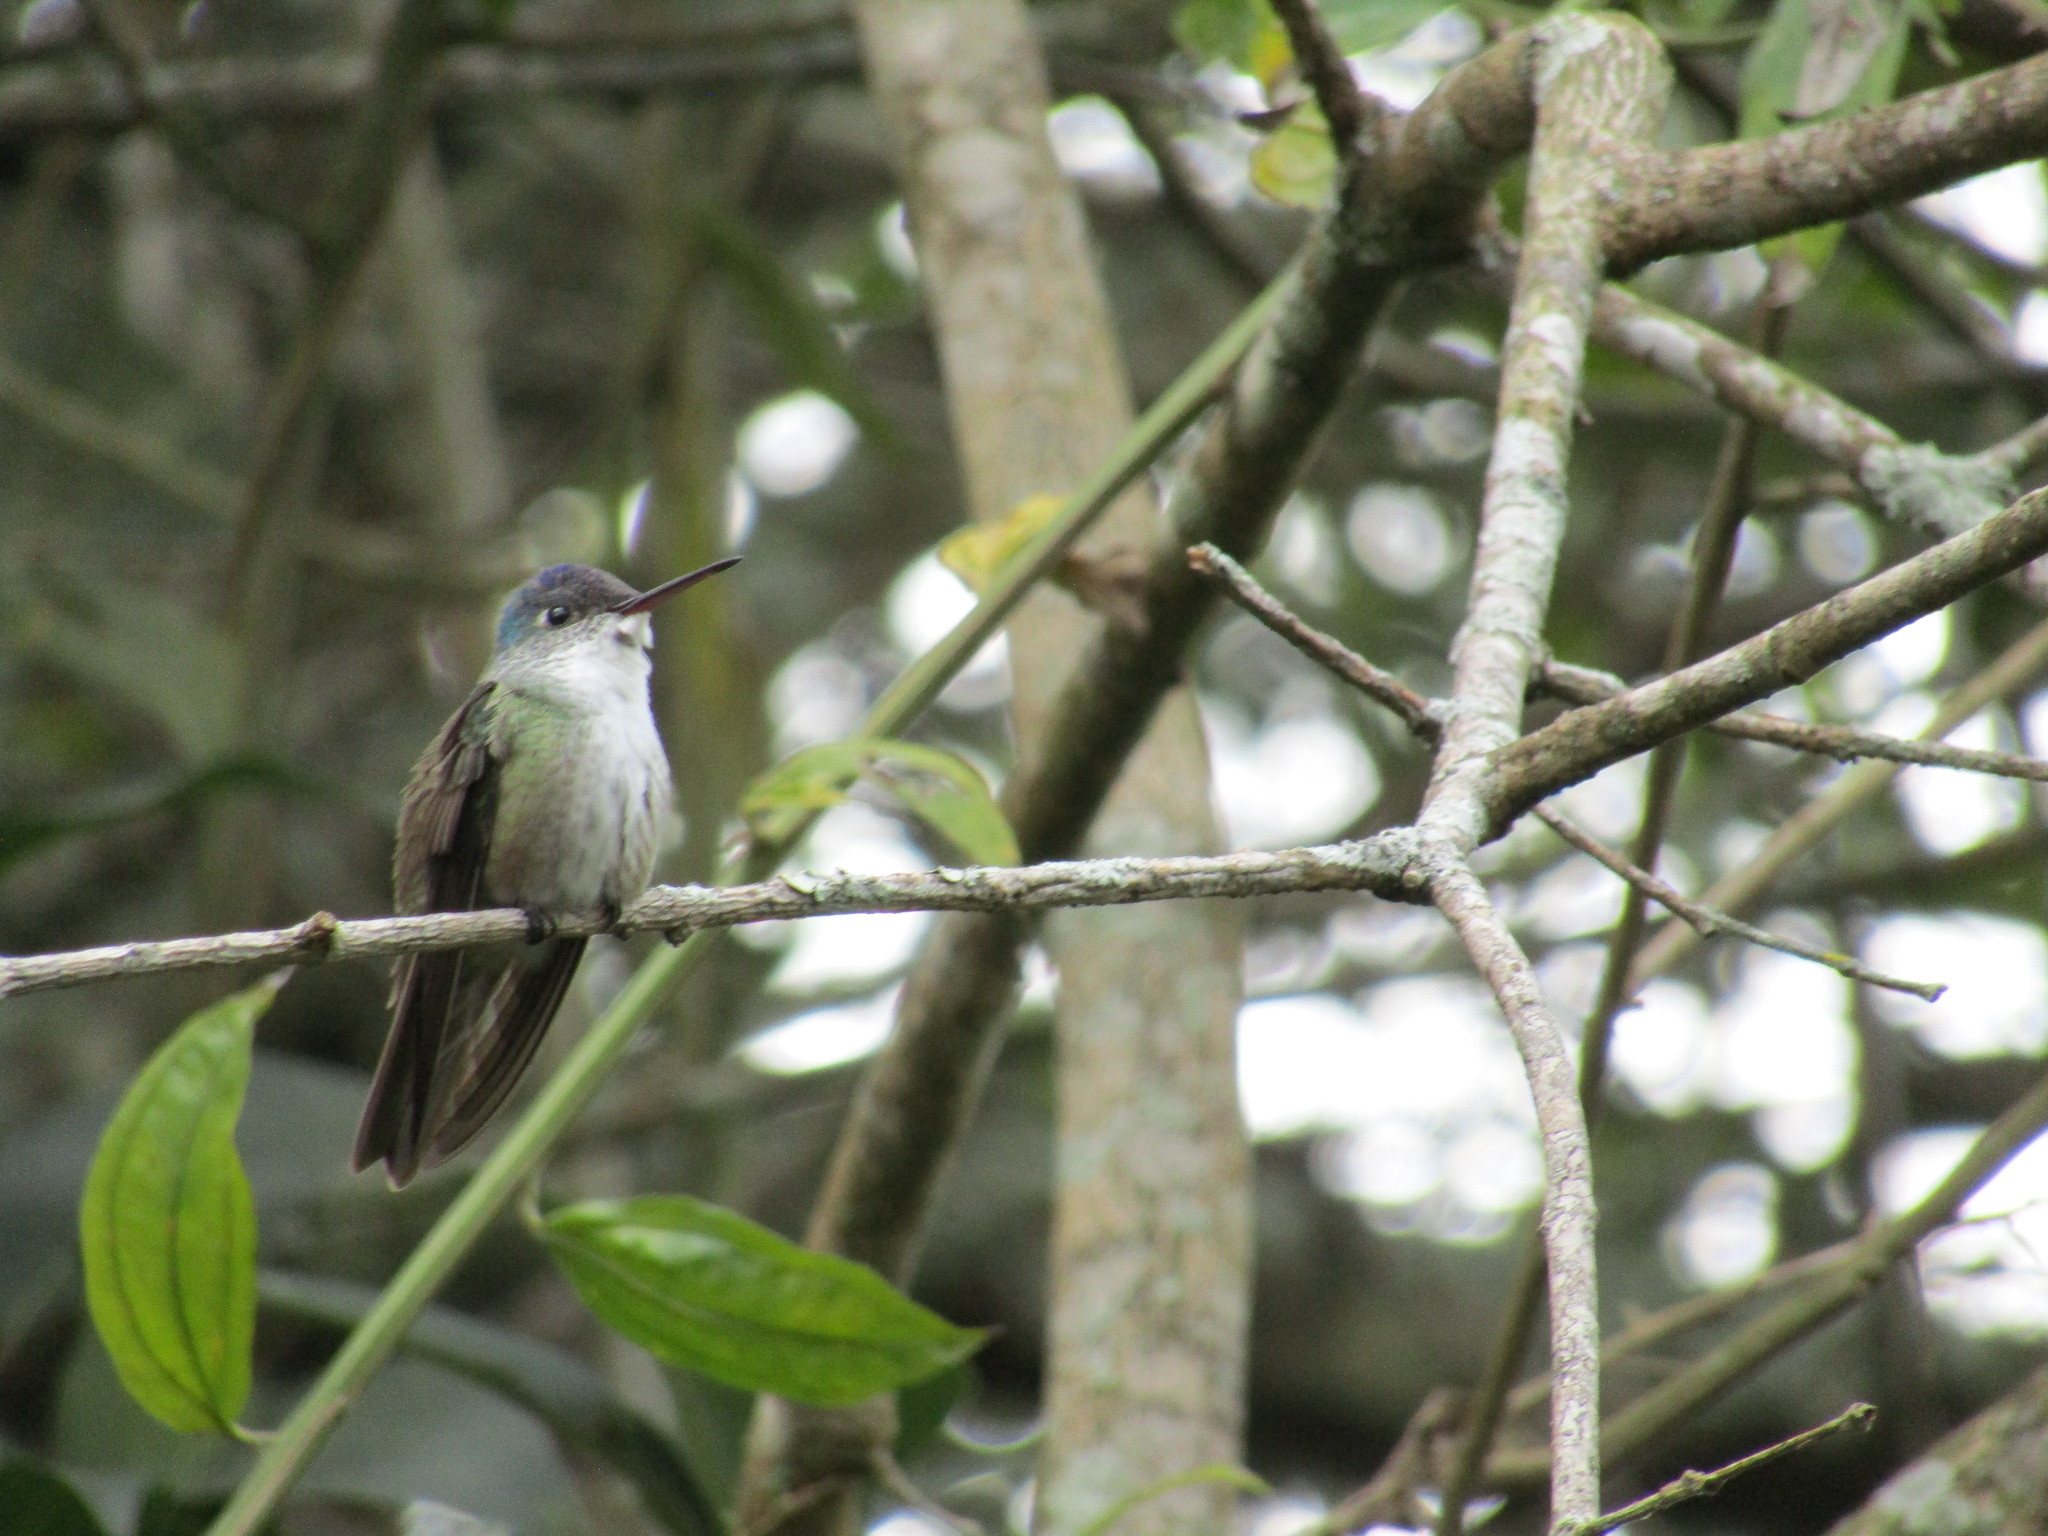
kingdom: Animalia
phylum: Chordata
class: Aves
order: Apodiformes
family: Trochilidae
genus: Saucerottia
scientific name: Saucerottia cyanocephala
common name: Azure-crowned hummingbird
